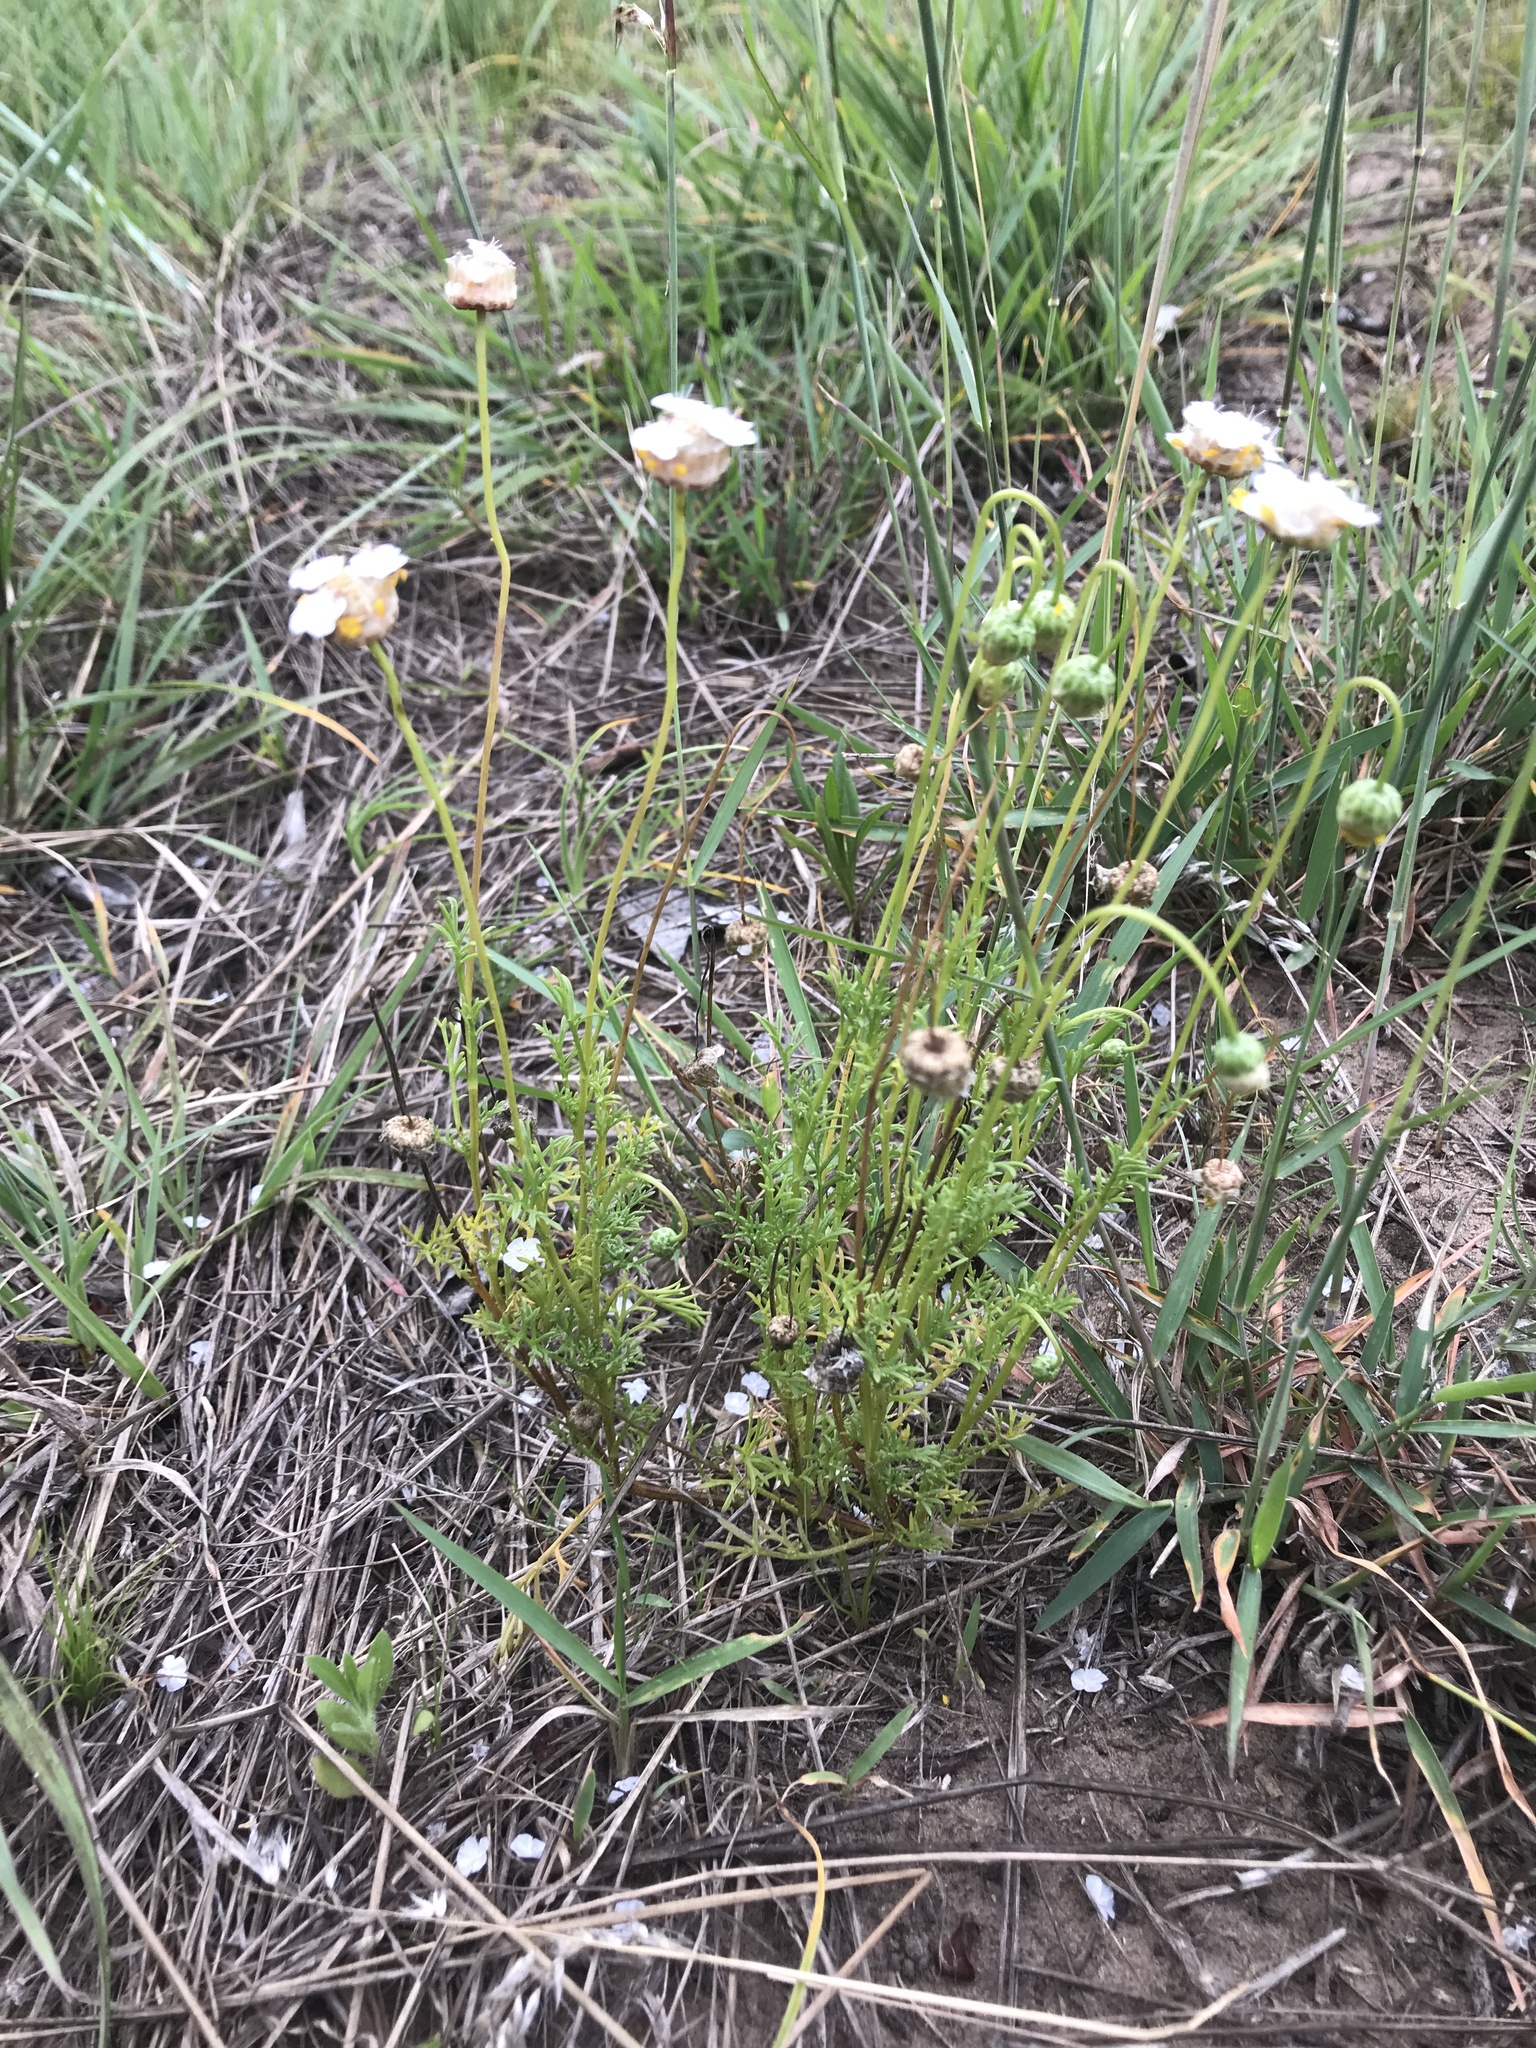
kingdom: Plantae
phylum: Tracheophyta
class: Magnoliopsida
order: Asterales
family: Asteraceae
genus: Ursinia
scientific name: Ursinia nana
